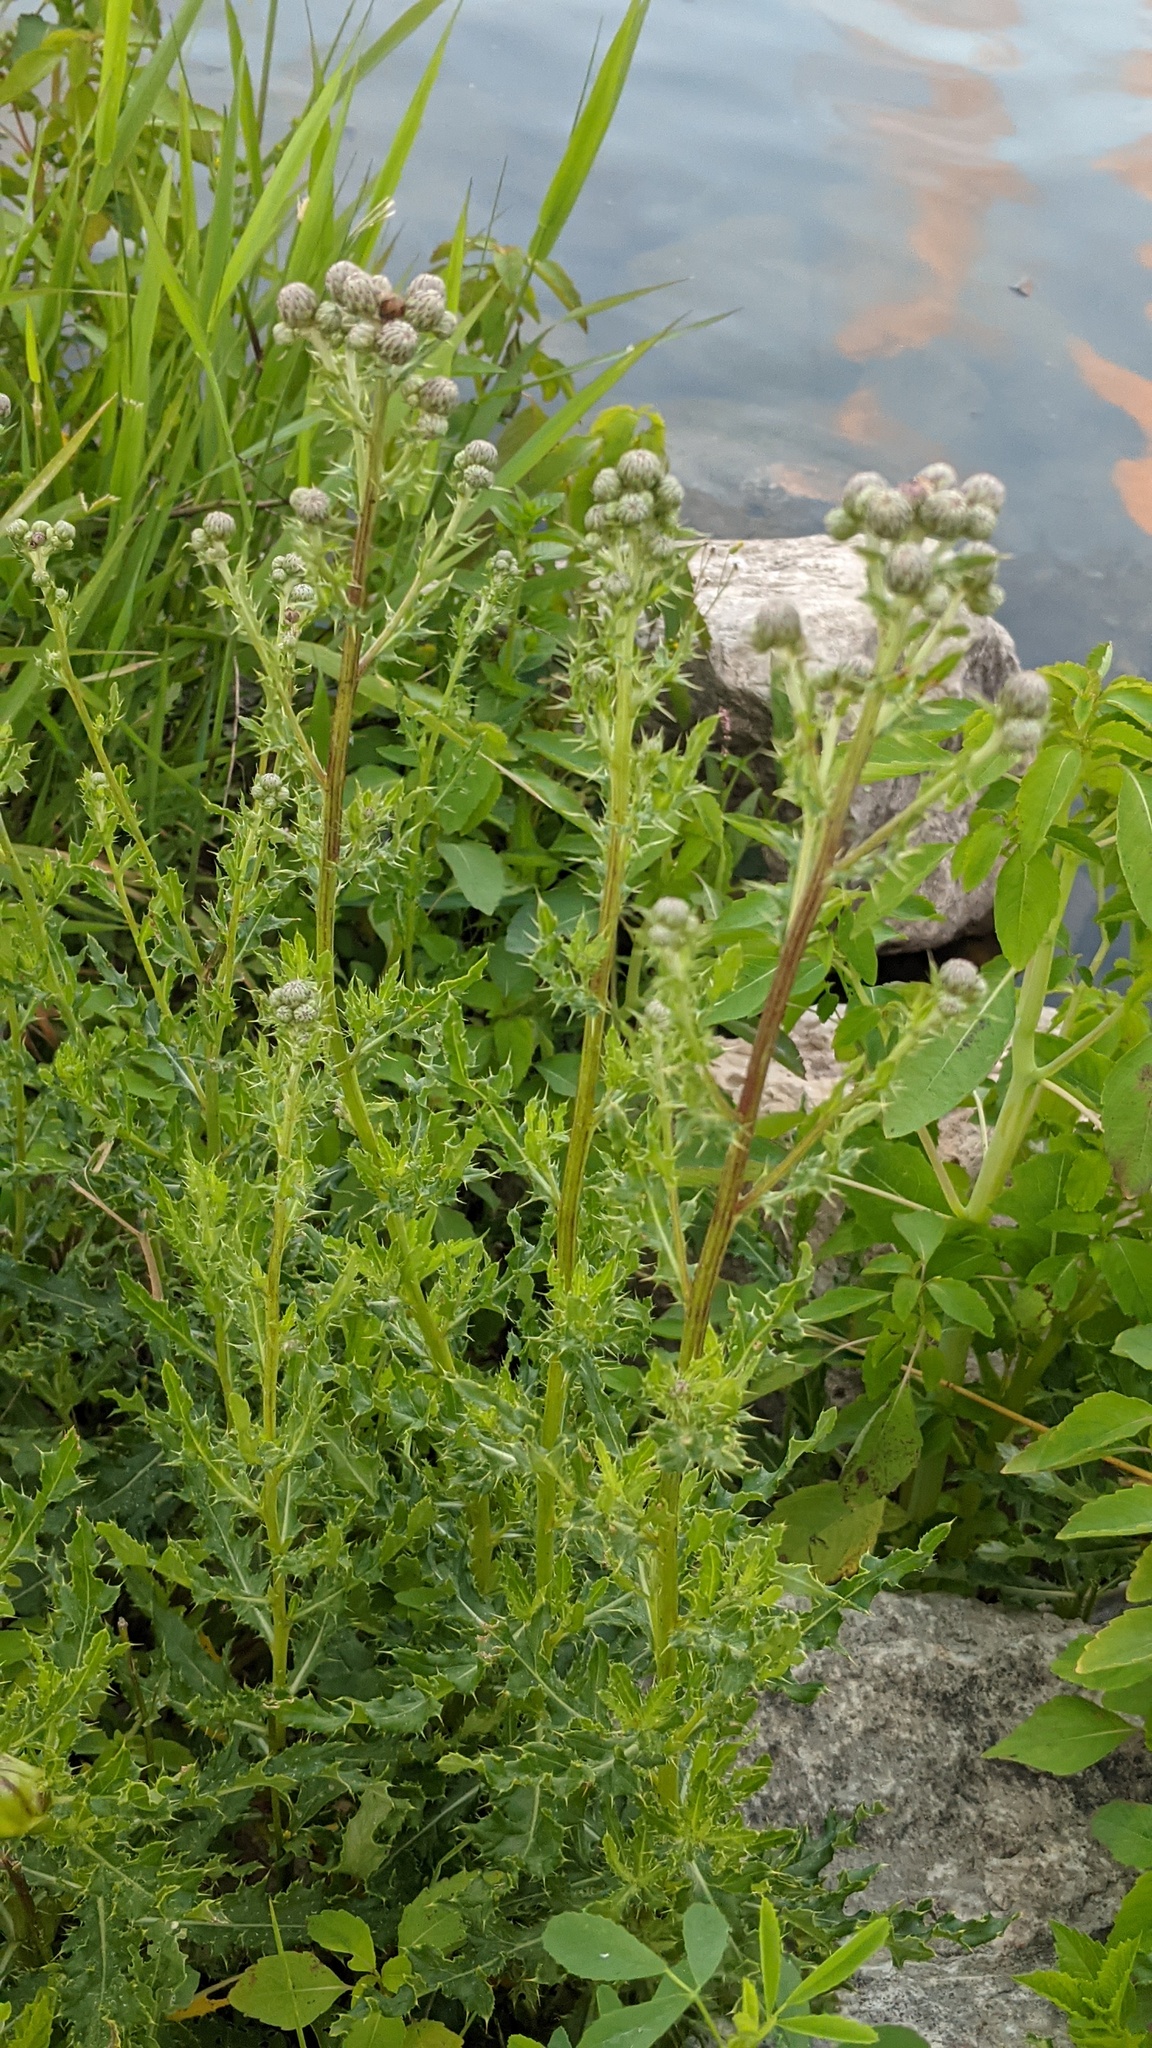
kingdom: Plantae
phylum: Tracheophyta
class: Magnoliopsida
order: Asterales
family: Asteraceae
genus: Cirsium
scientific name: Cirsium arvense
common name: Creeping thistle
